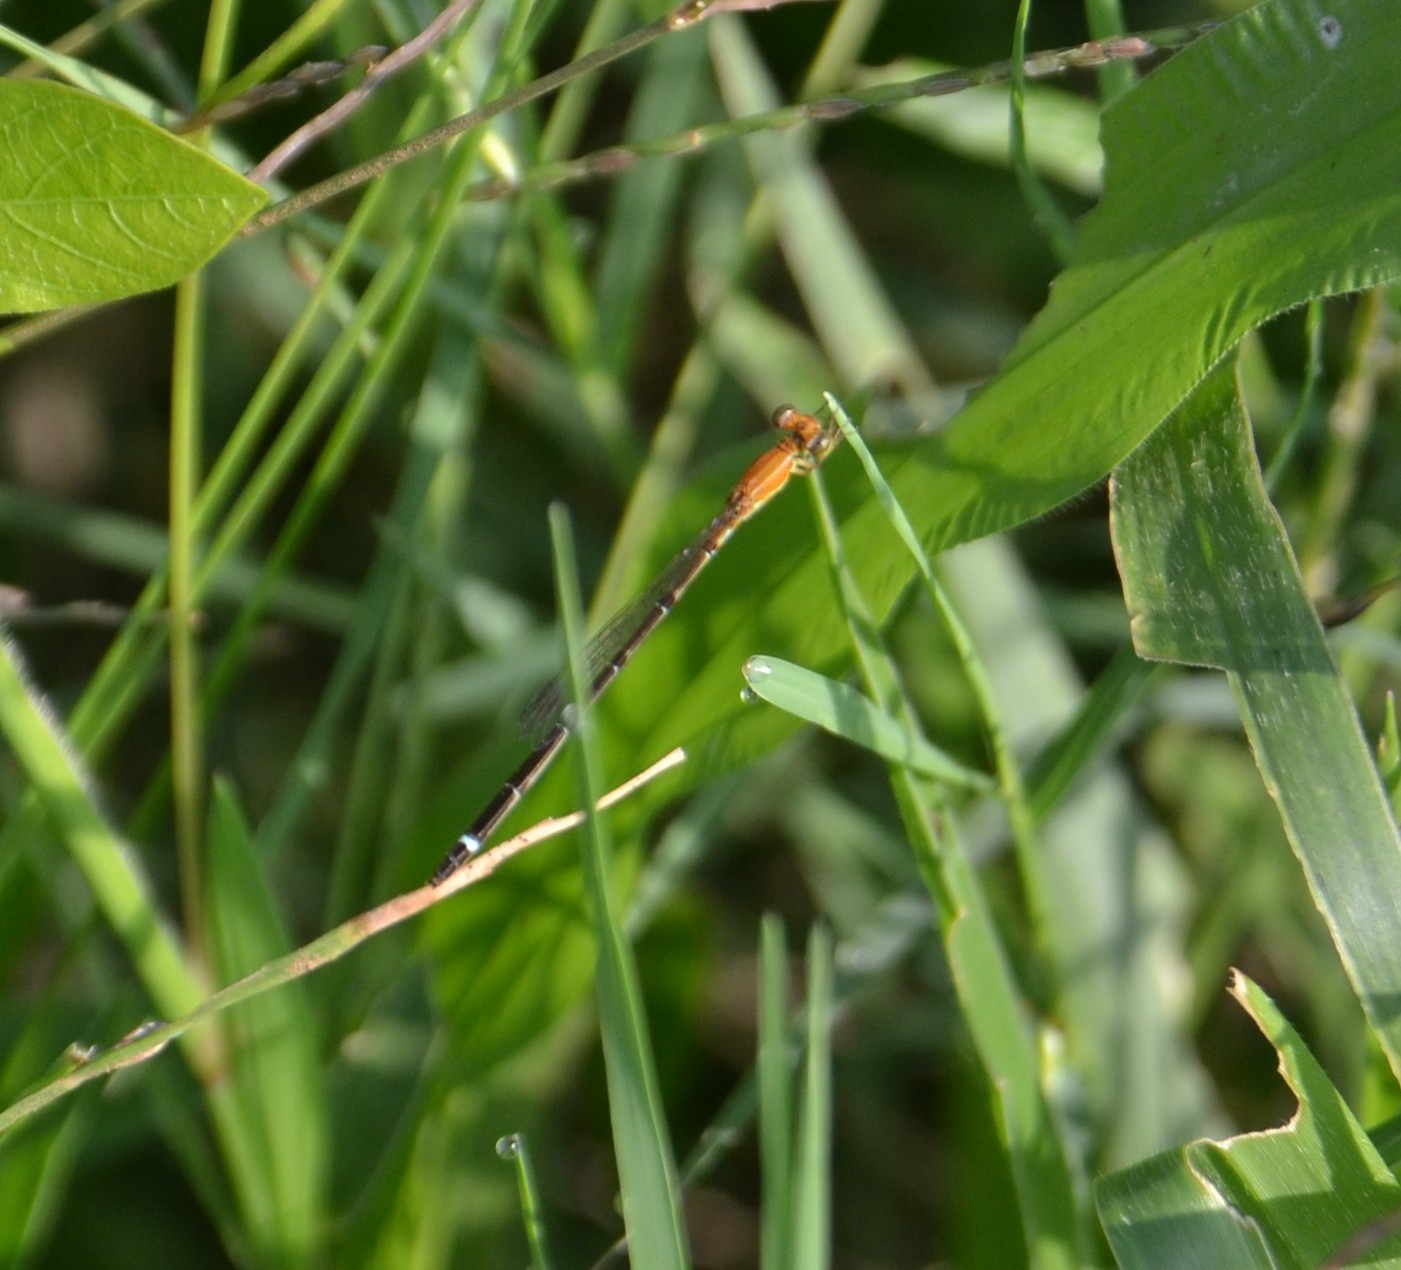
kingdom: Animalia
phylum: Arthropoda
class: Insecta
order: Odonata
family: Coenagrionidae
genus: Mortonagrion
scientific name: Mortonagrion varralli
